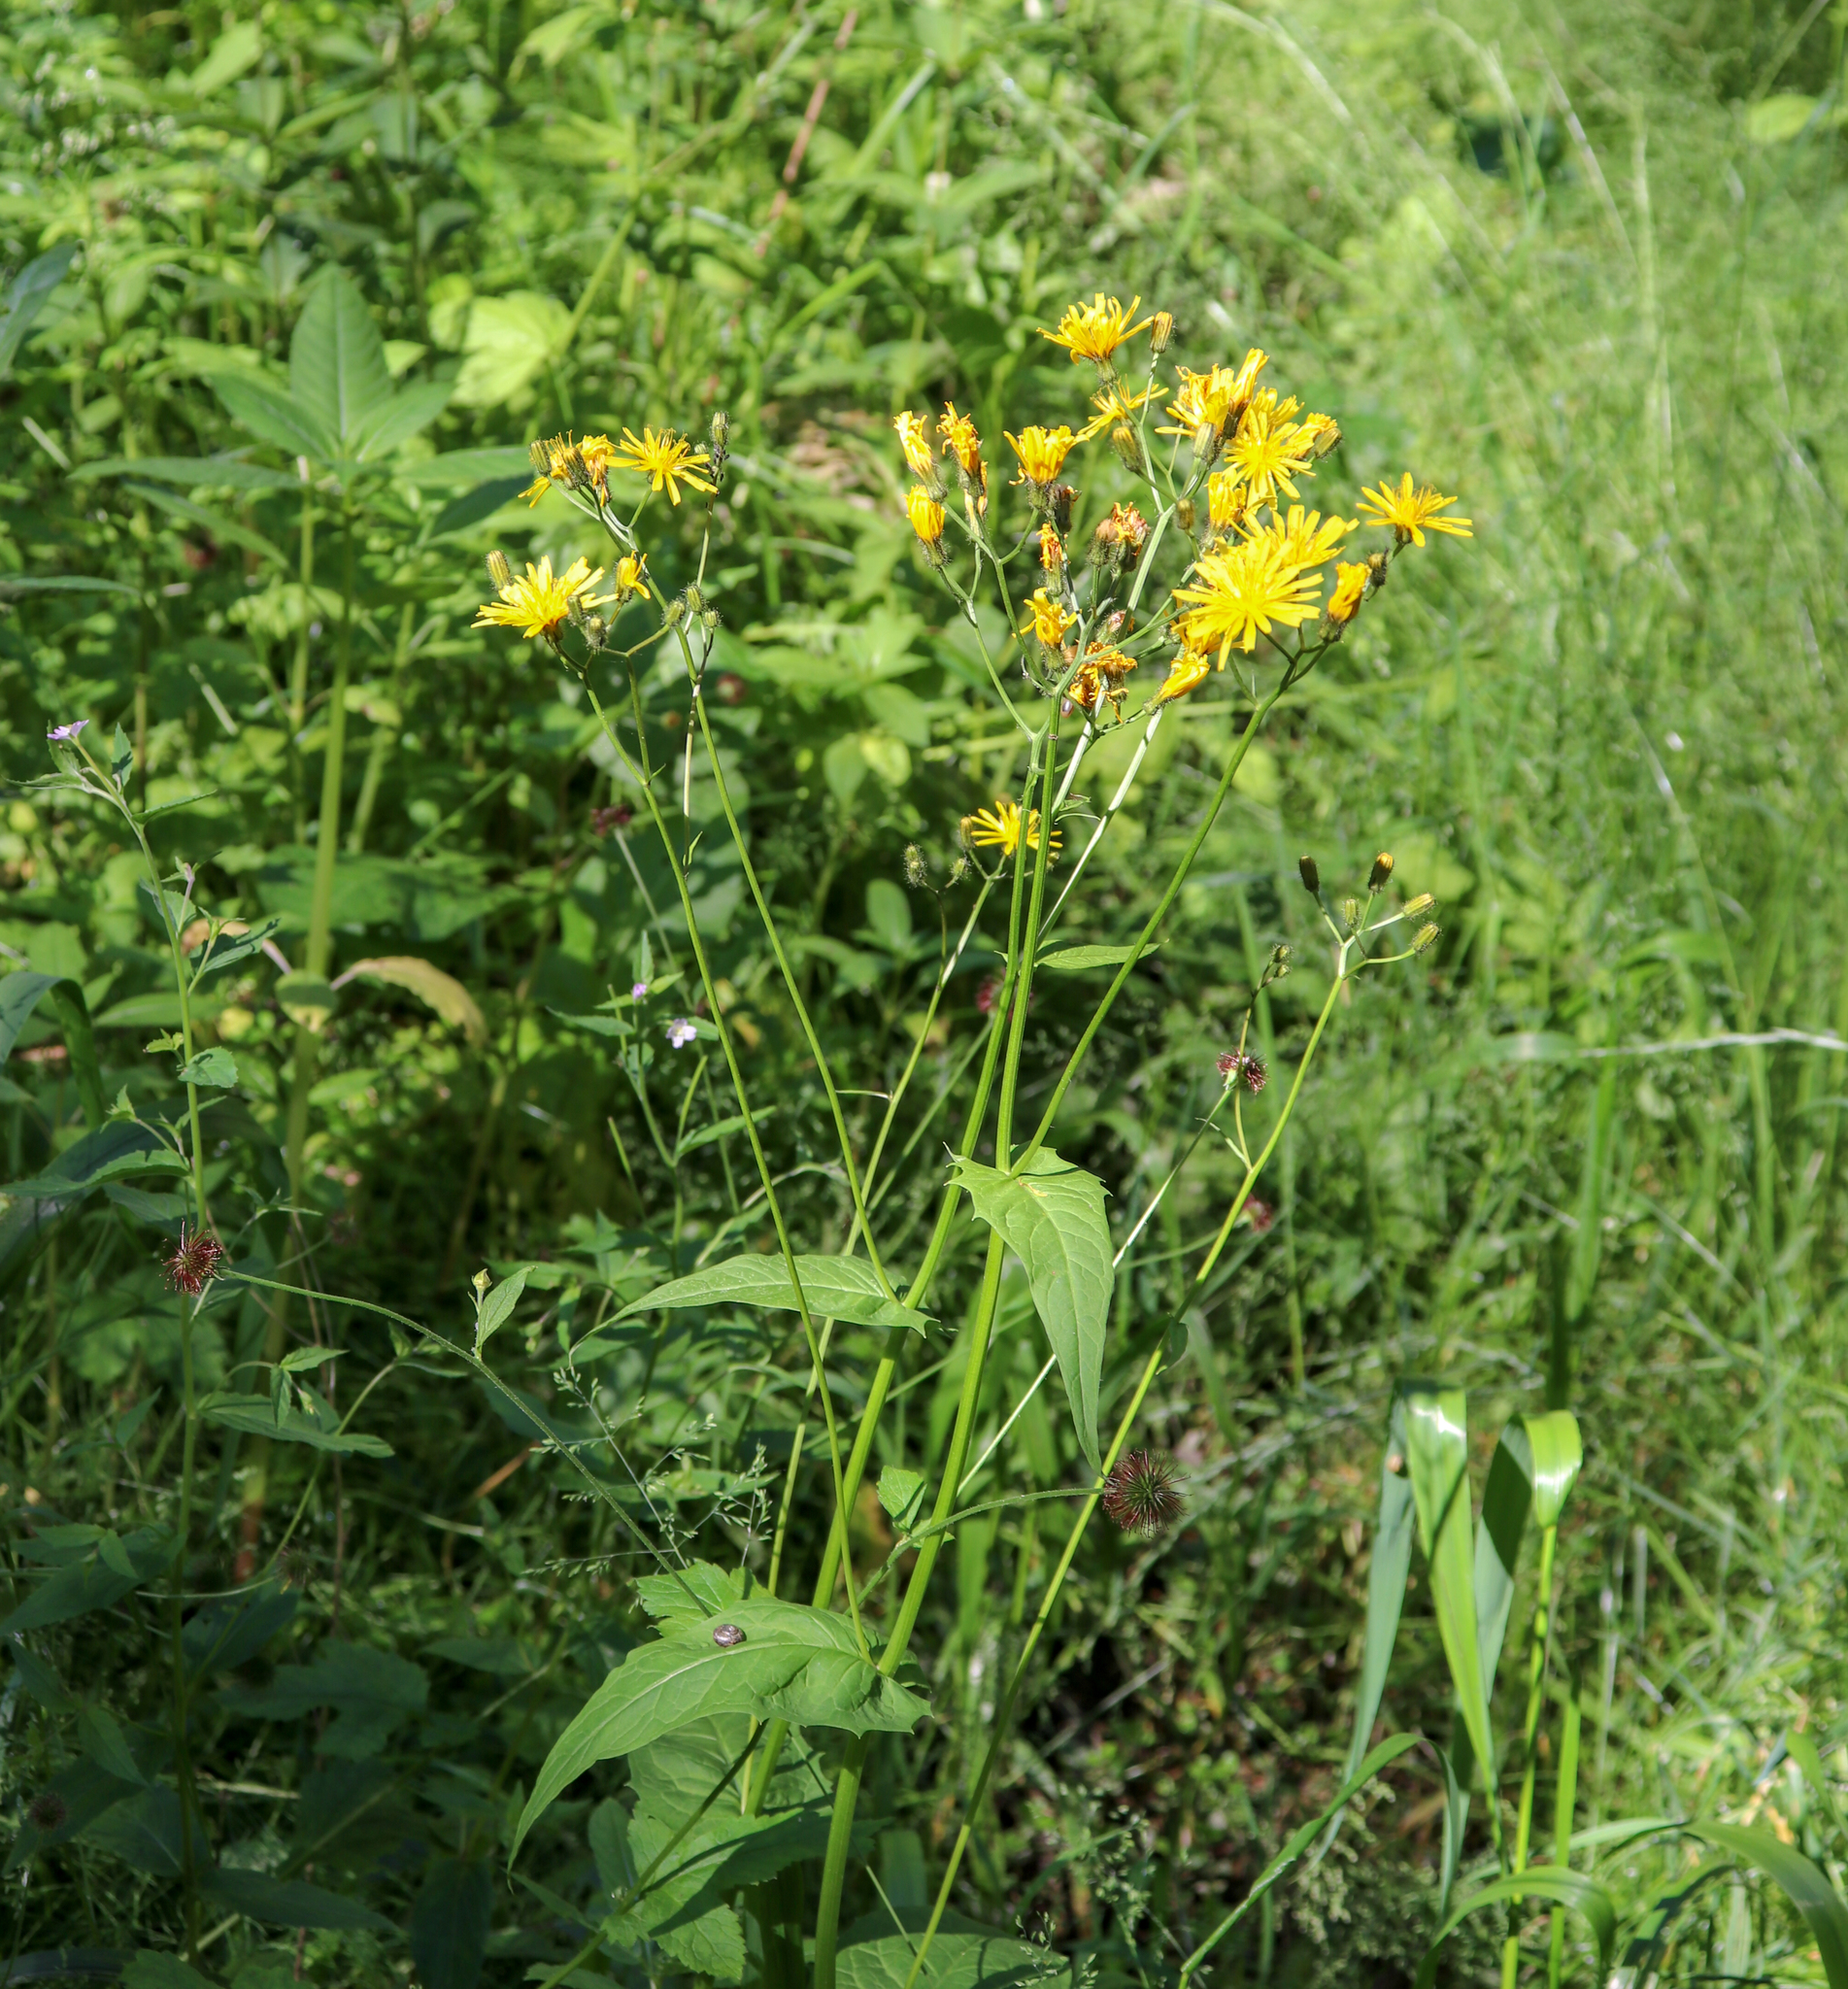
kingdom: Plantae
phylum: Tracheophyta
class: Magnoliopsida
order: Asterales
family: Asteraceae
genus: Crepis
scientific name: Crepis paludosa
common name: Marsh hawk's-beard
